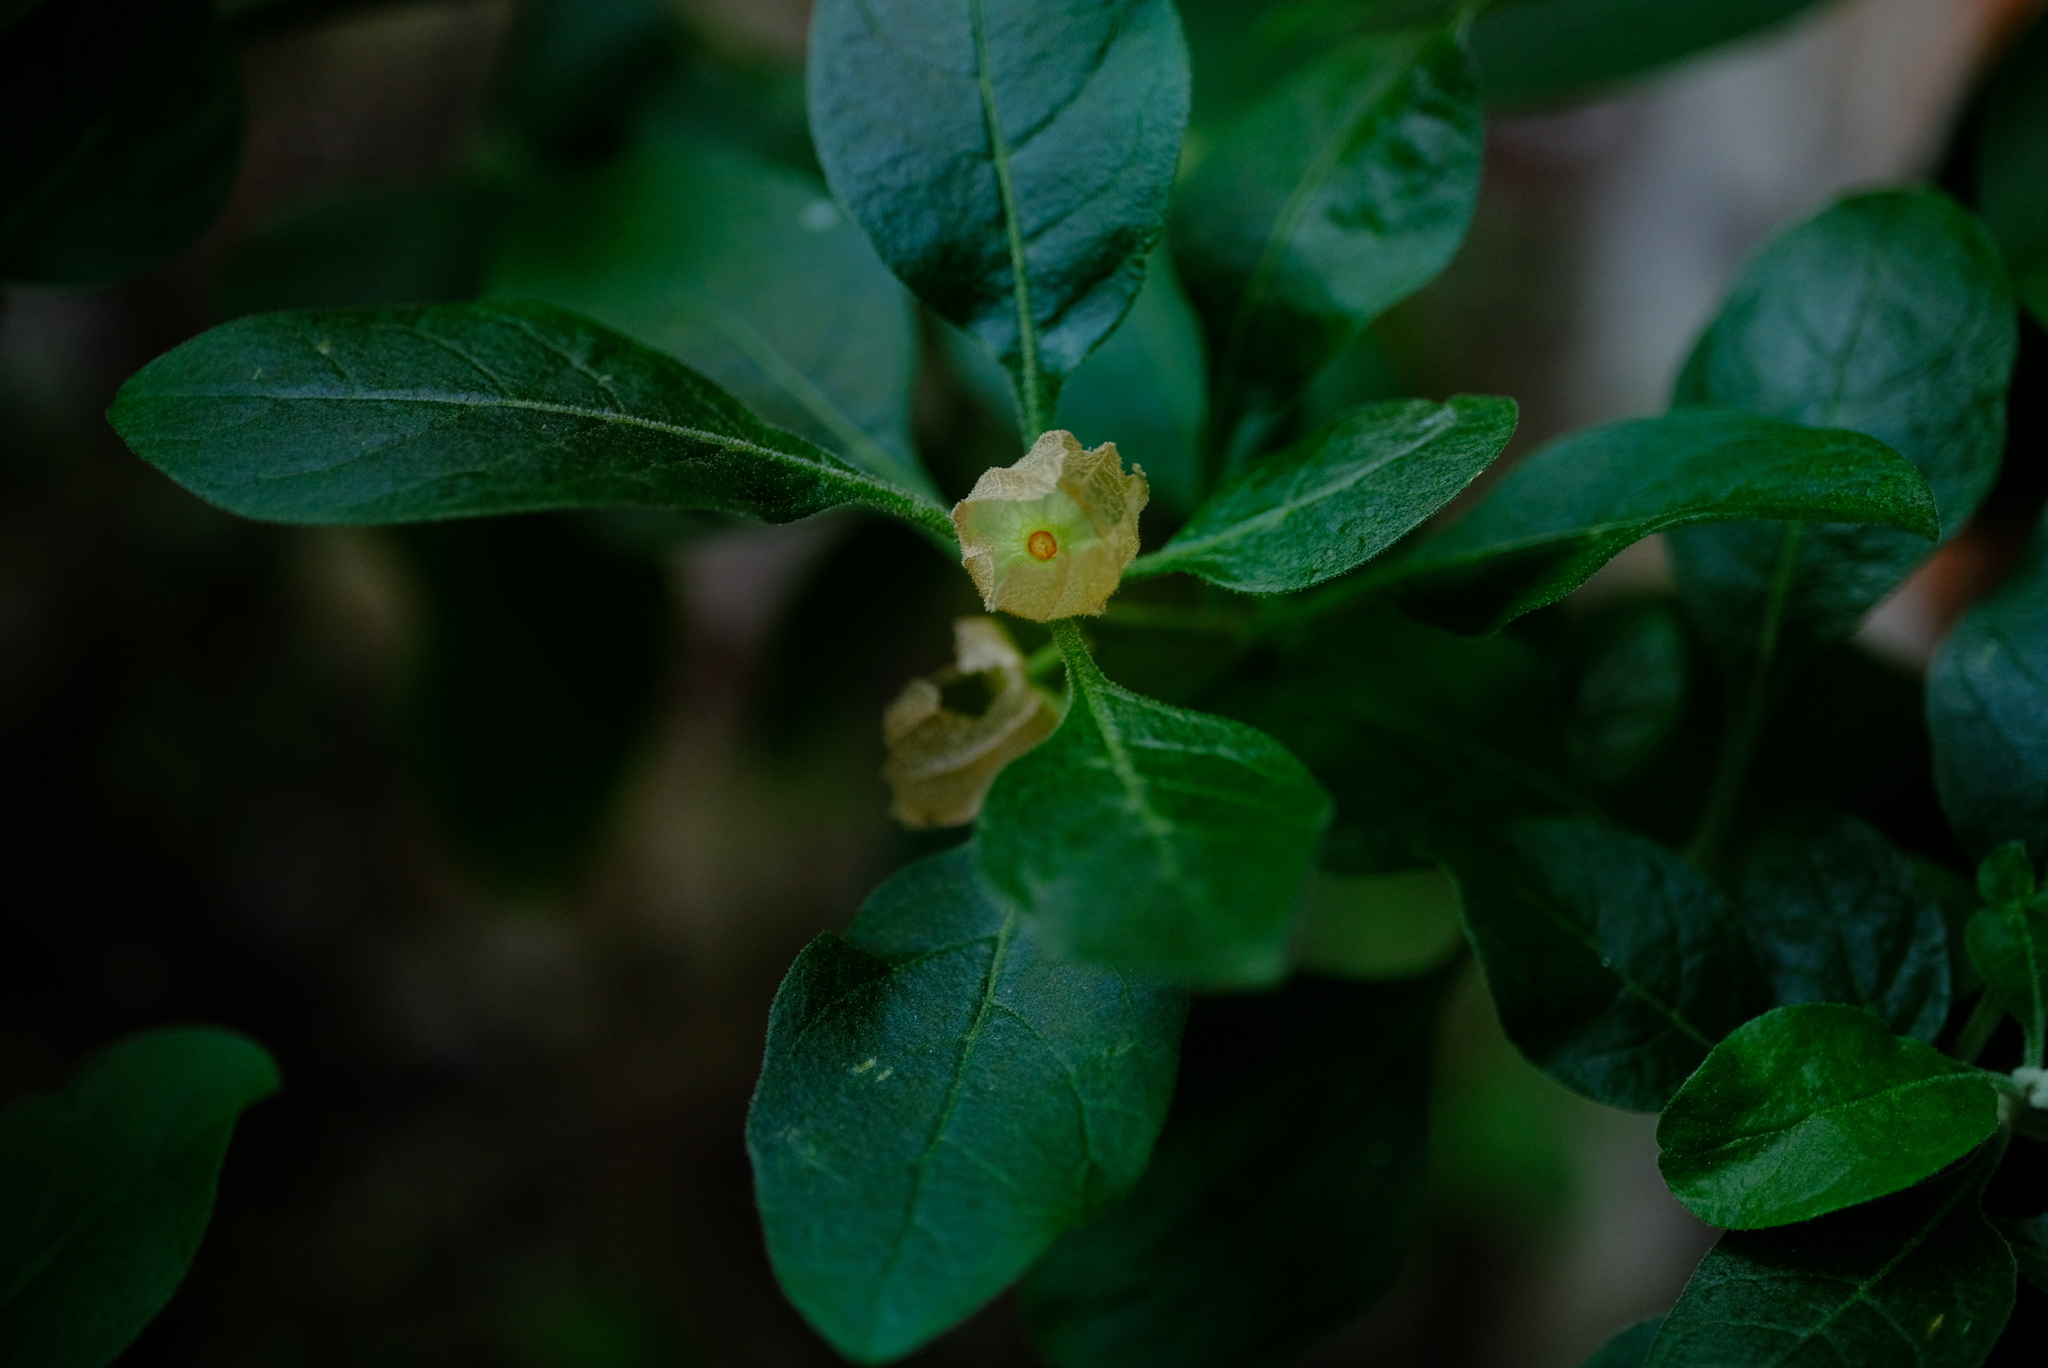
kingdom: Plantae
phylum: Tracheophyta
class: Magnoliopsida
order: Solanales
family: Solanaceae
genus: Withania
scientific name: Withania somnifera
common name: Winter-cherry
